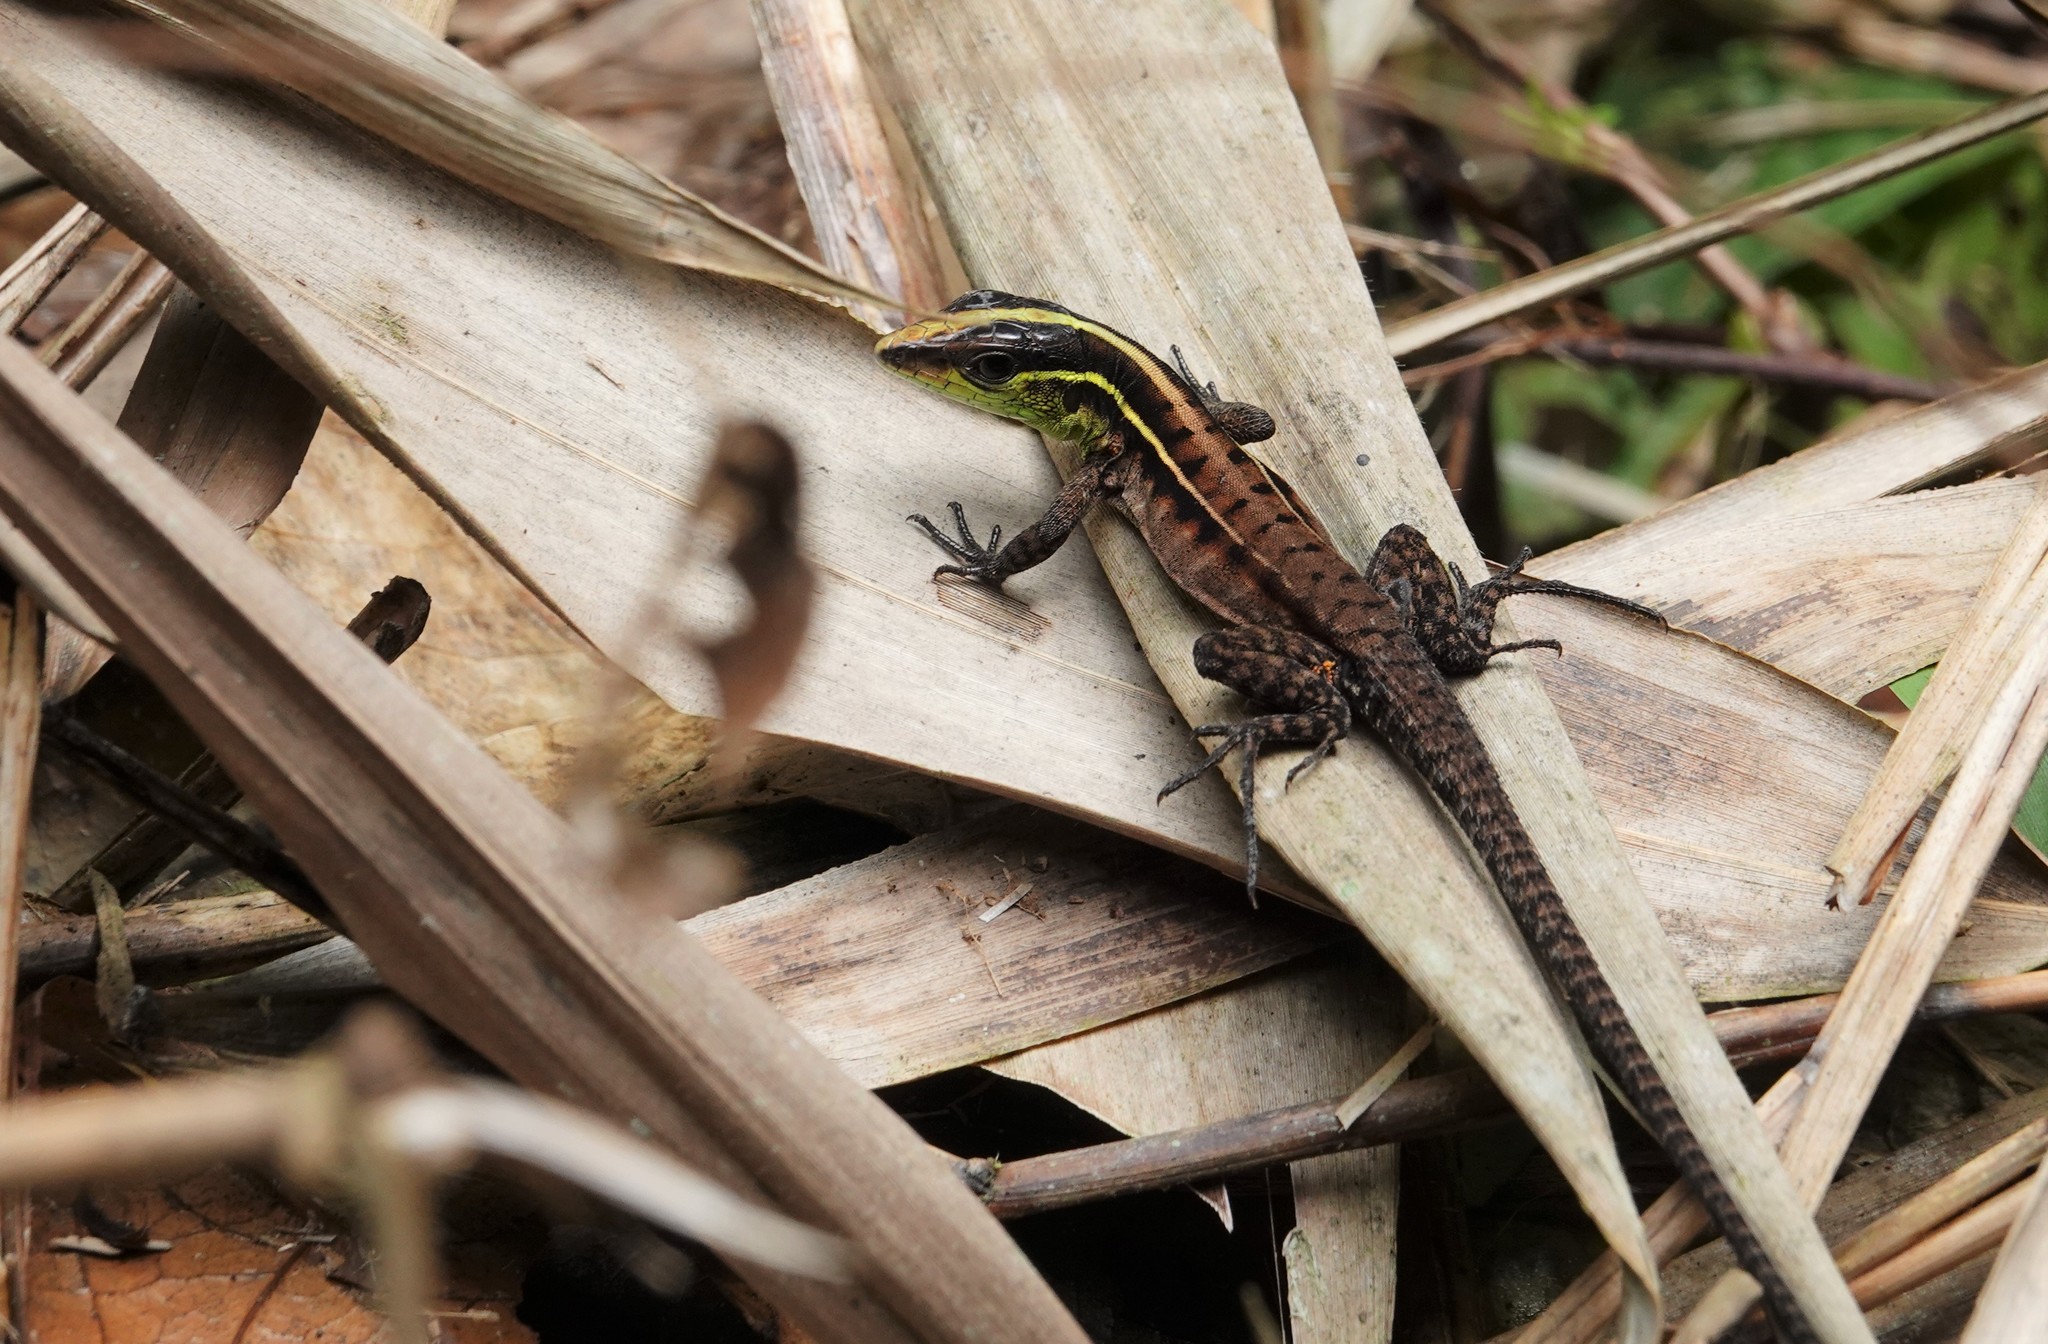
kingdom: Animalia
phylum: Chordata
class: Squamata
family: Teiidae
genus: Kentropyx
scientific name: Kentropyx calcarata
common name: Striped forest whiptail
